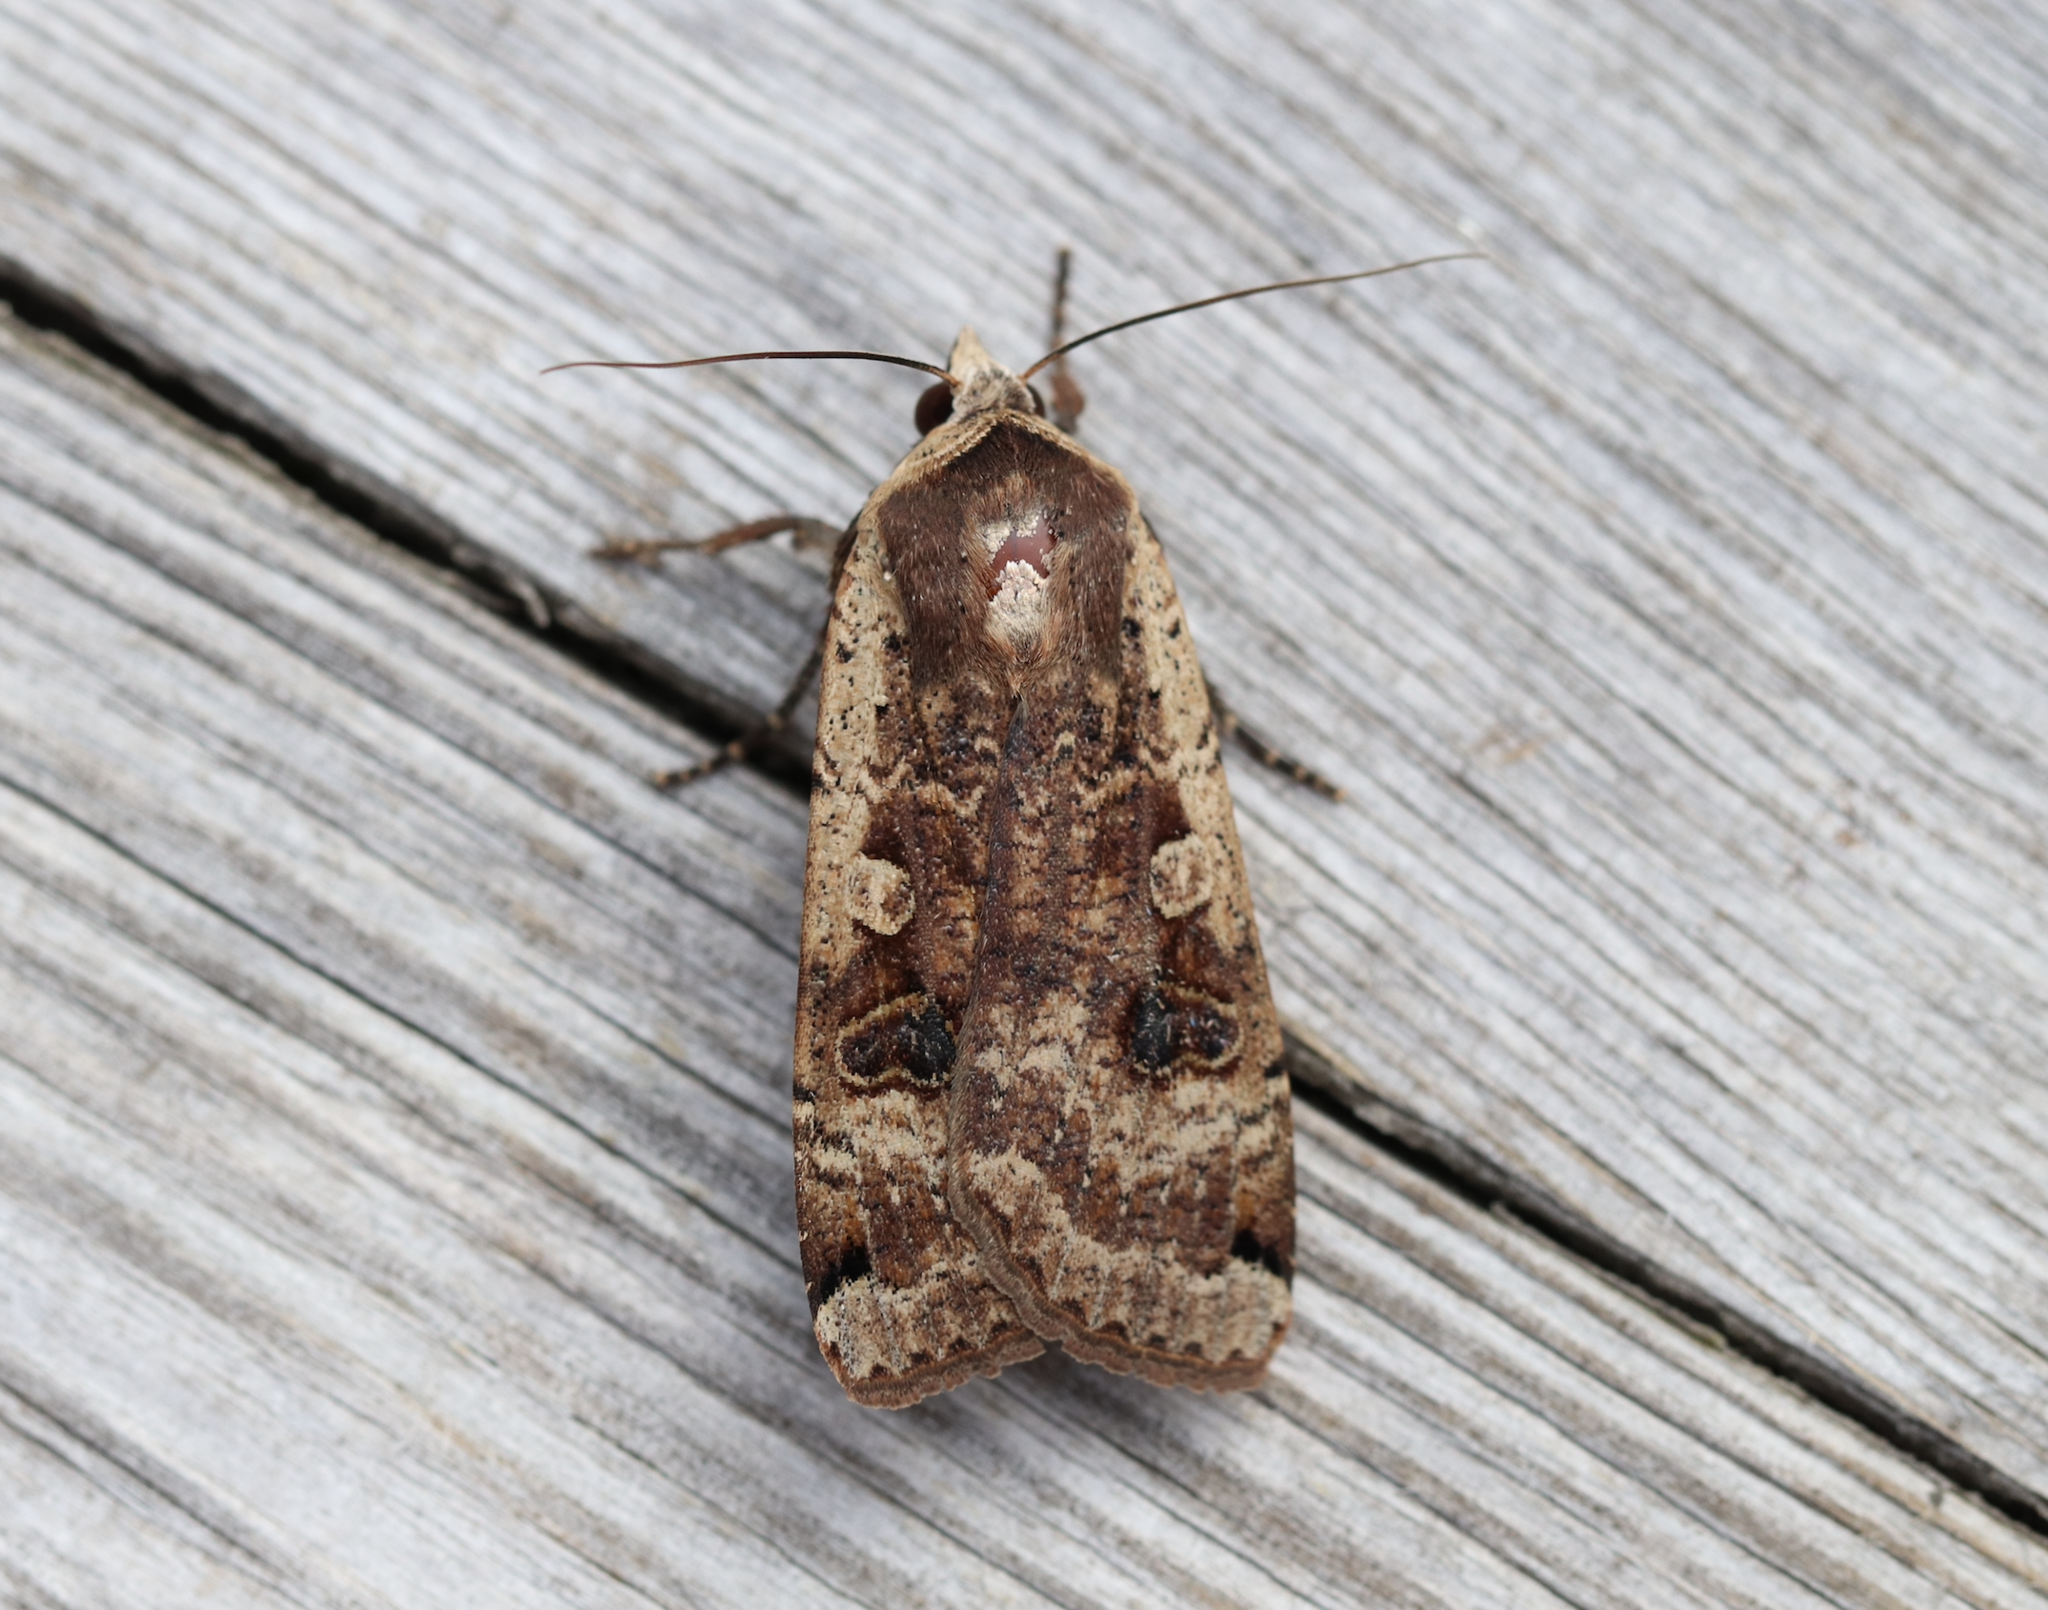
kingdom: Animalia
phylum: Arthropoda
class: Insecta
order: Lepidoptera
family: Noctuidae
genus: Noctua
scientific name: Noctua pronuba
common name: Large yellow underwing
